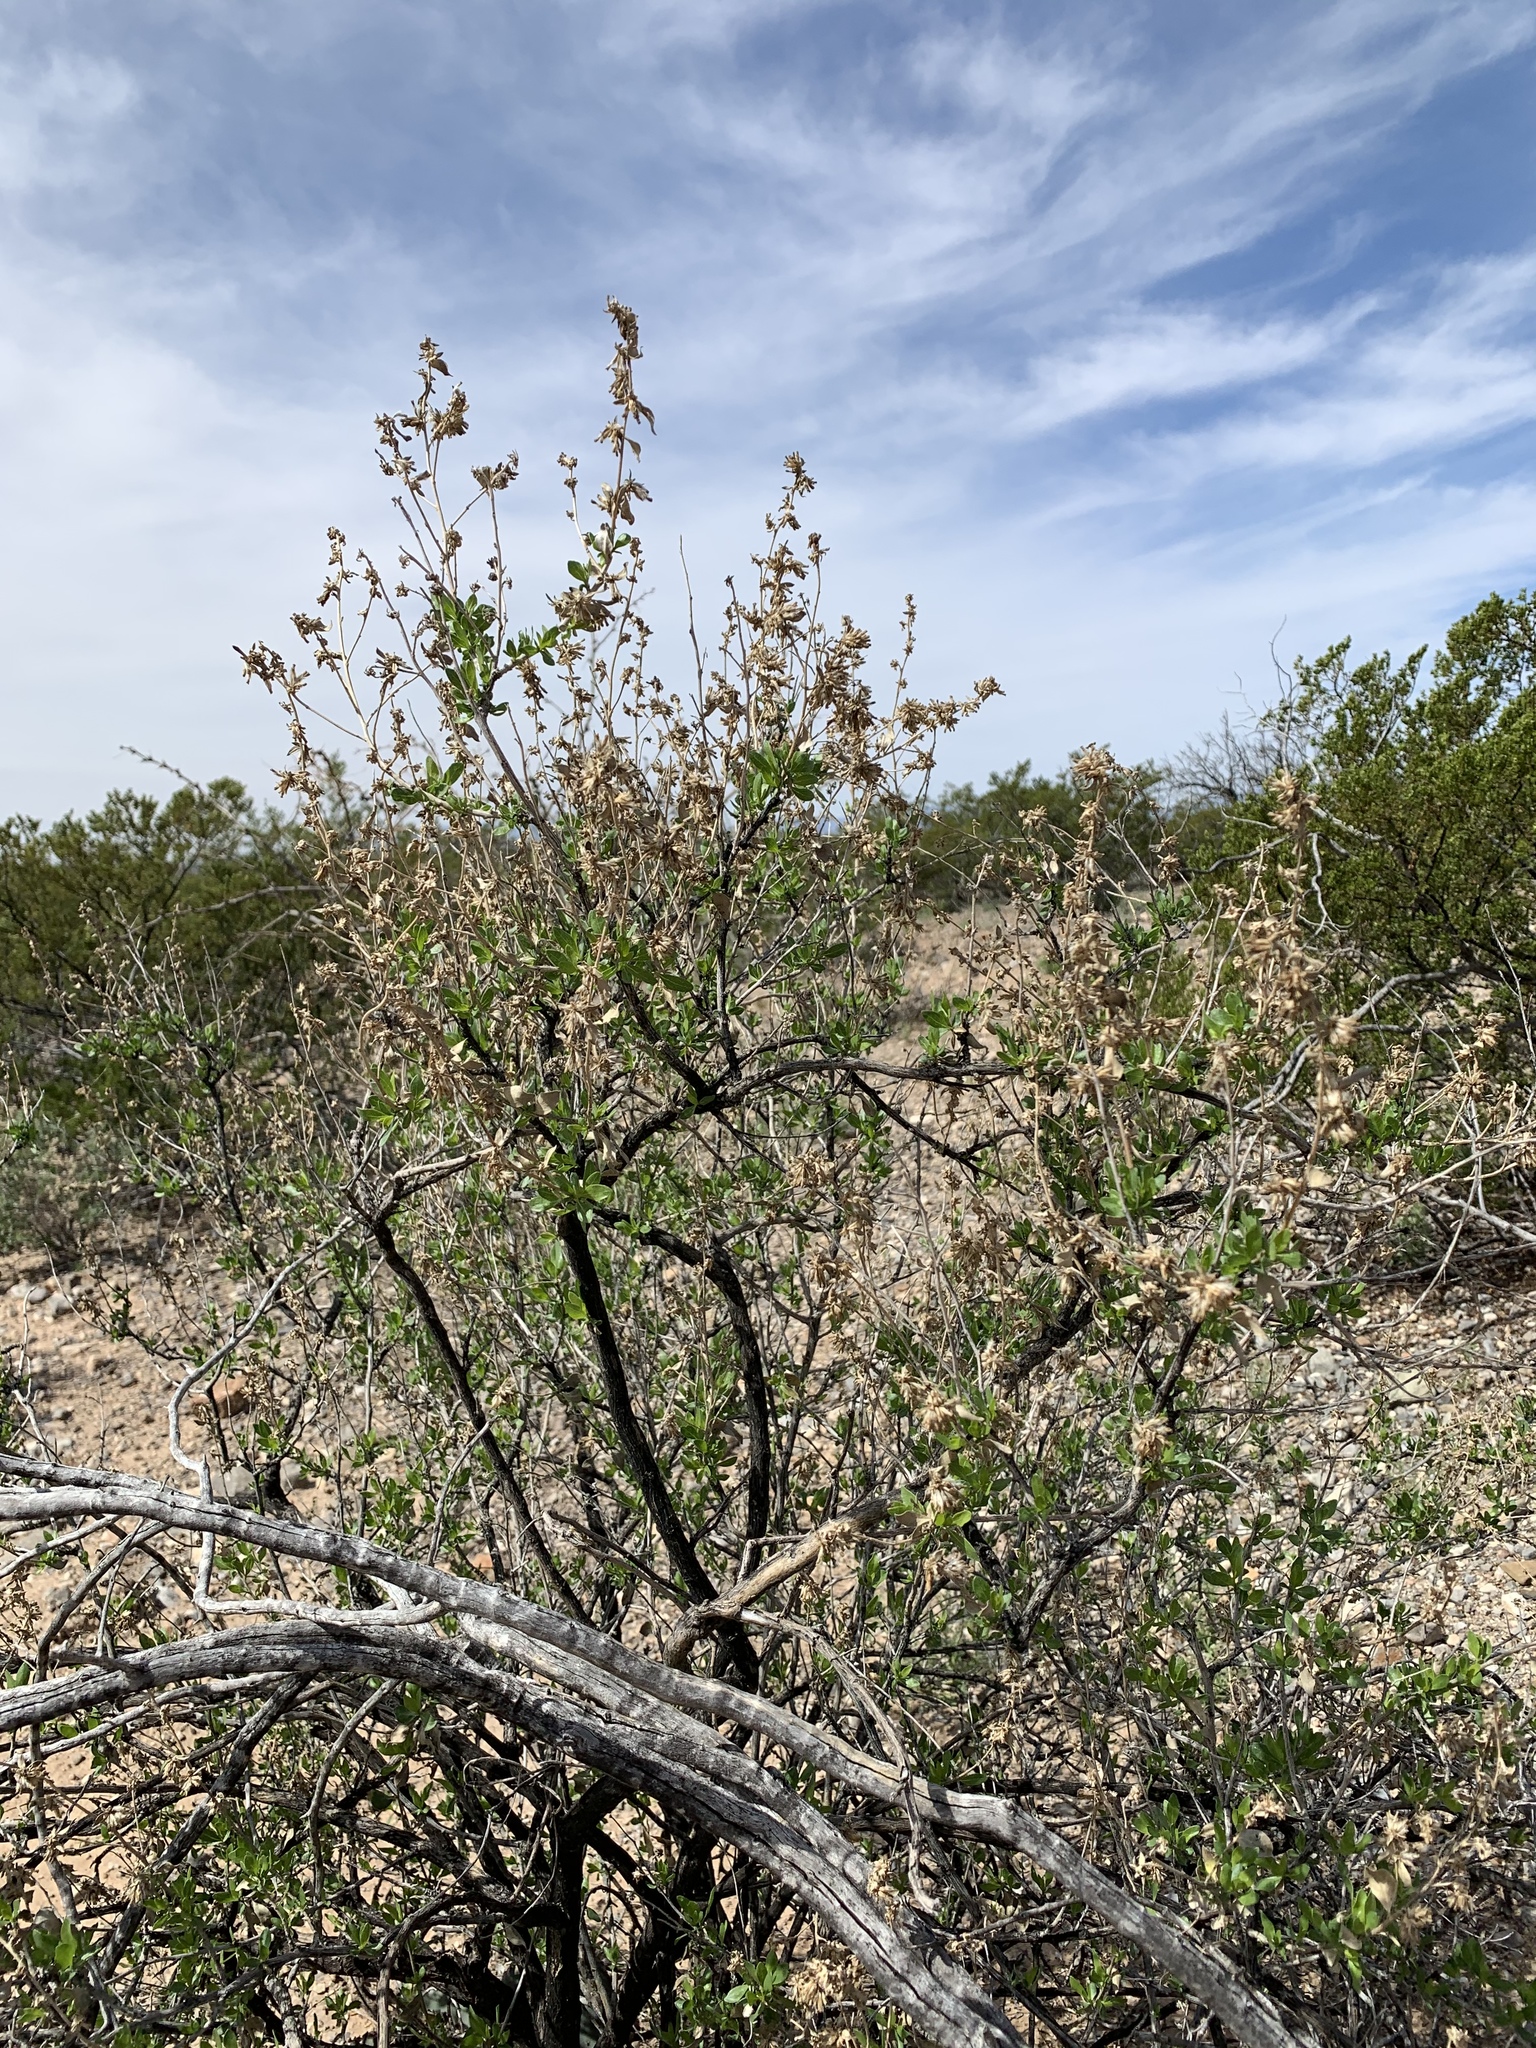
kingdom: Plantae
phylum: Tracheophyta
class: Magnoliopsida
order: Asterales
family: Asteraceae
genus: Flourensia
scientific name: Flourensia cernua
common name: Varnishbush
